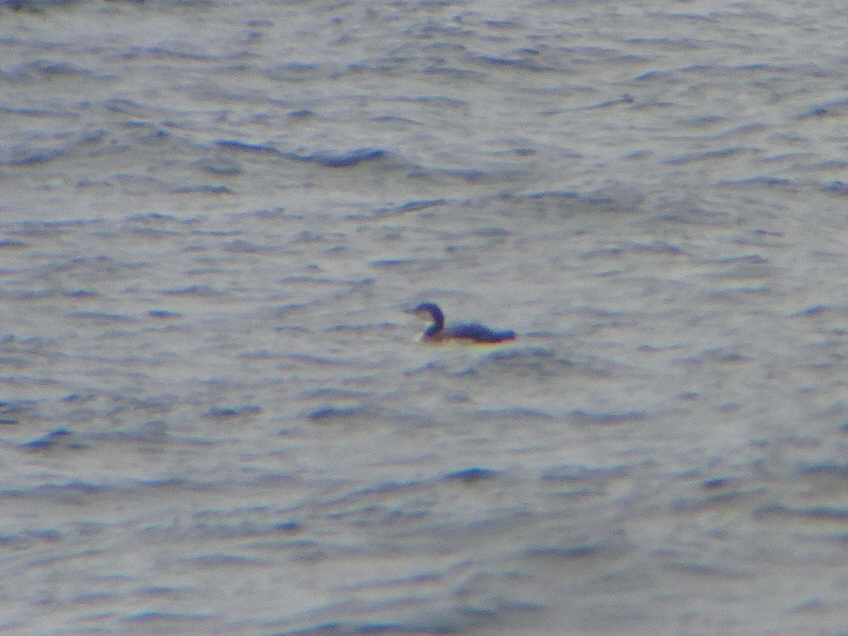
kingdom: Animalia
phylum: Chordata
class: Aves
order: Gaviiformes
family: Gaviidae
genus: Gavia
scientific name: Gavia pacifica
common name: Pacific loon
